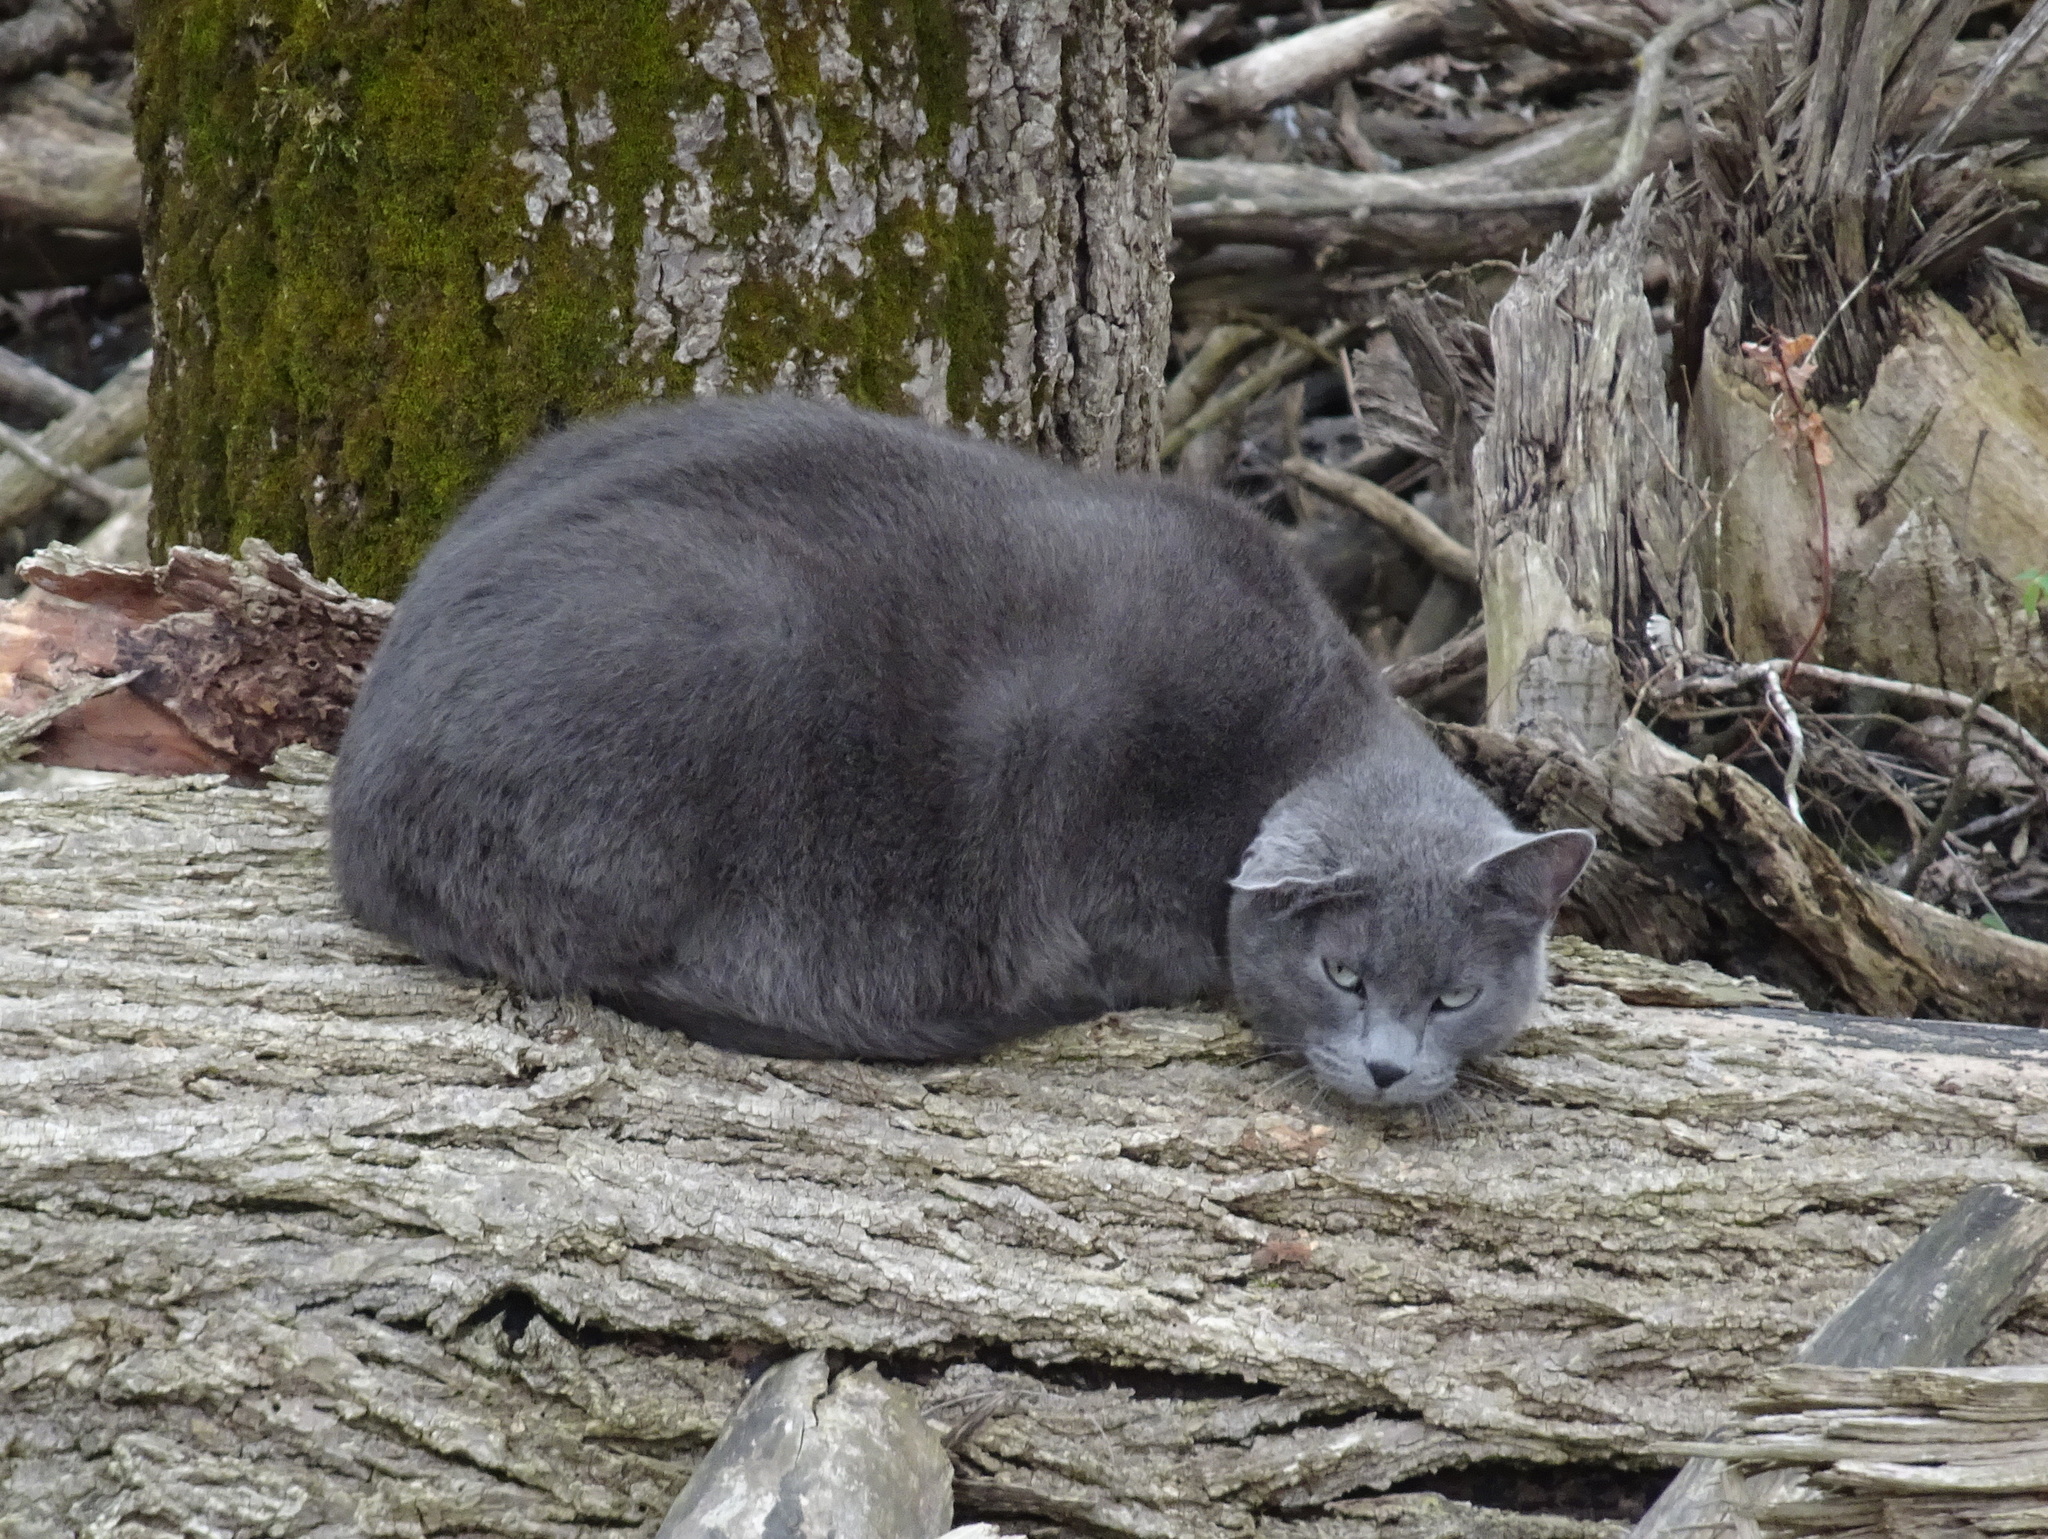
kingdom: Animalia
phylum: Chordata
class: Mammalia
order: Carnivora
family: Felidae
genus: Felis
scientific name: Felis catus
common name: Domestic cat
